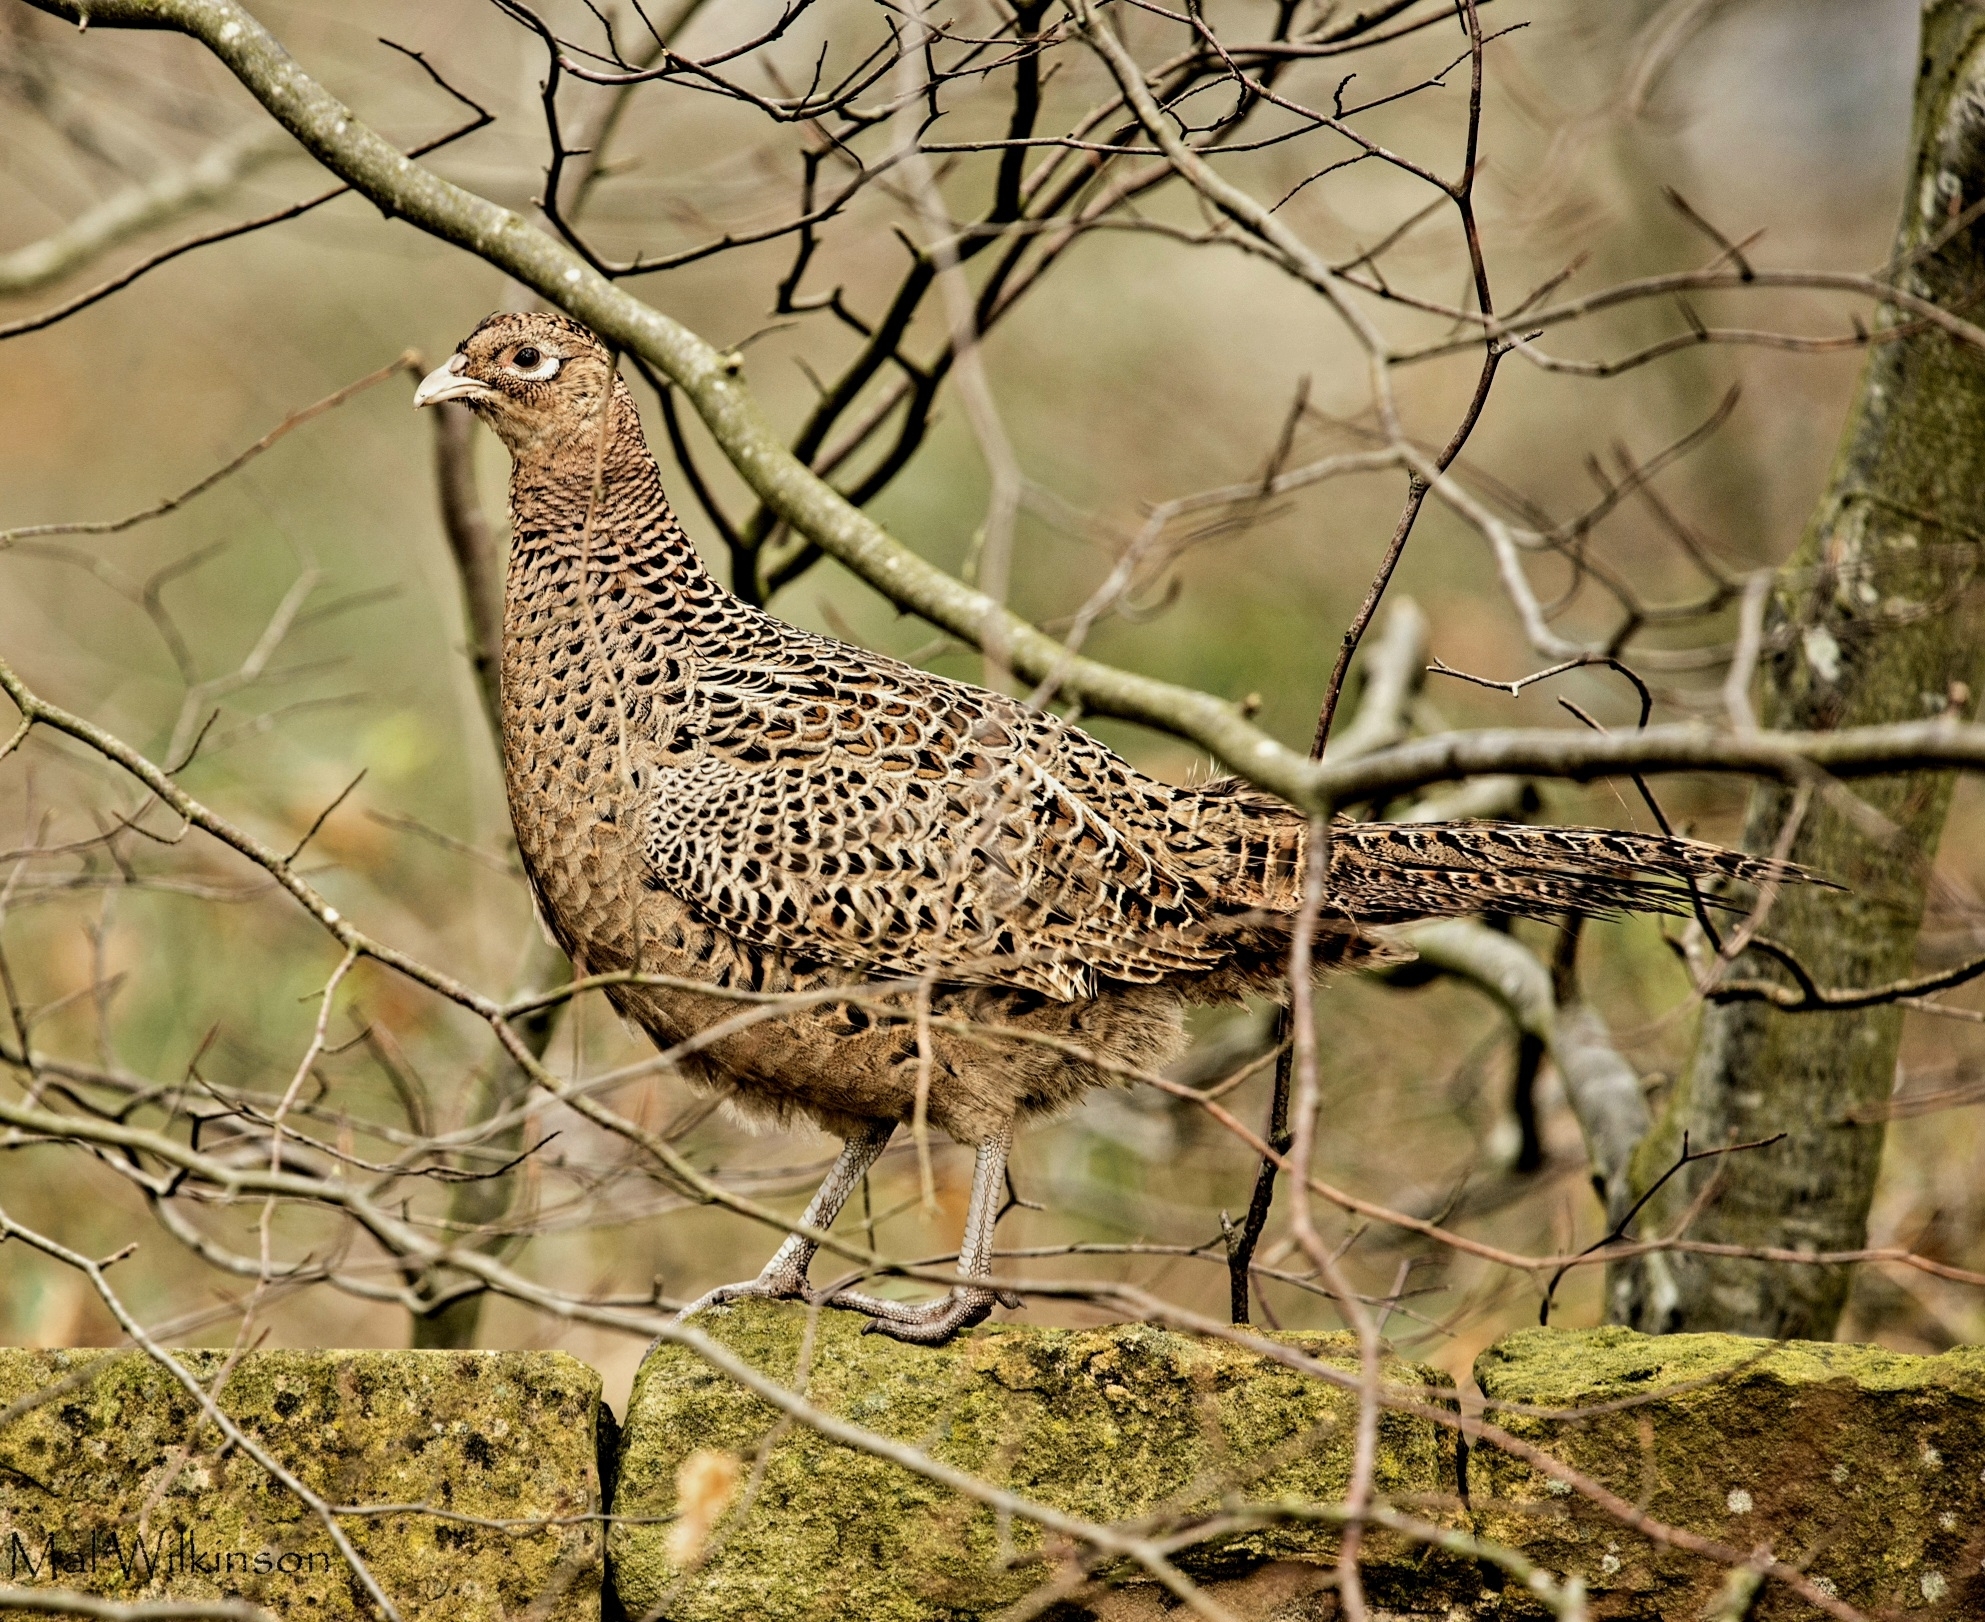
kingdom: Animalia
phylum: Chordata
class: Aves
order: Galliformes
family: Phasianidae
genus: Phasianus
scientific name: Phasianus colchicus
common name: Common pheasant
